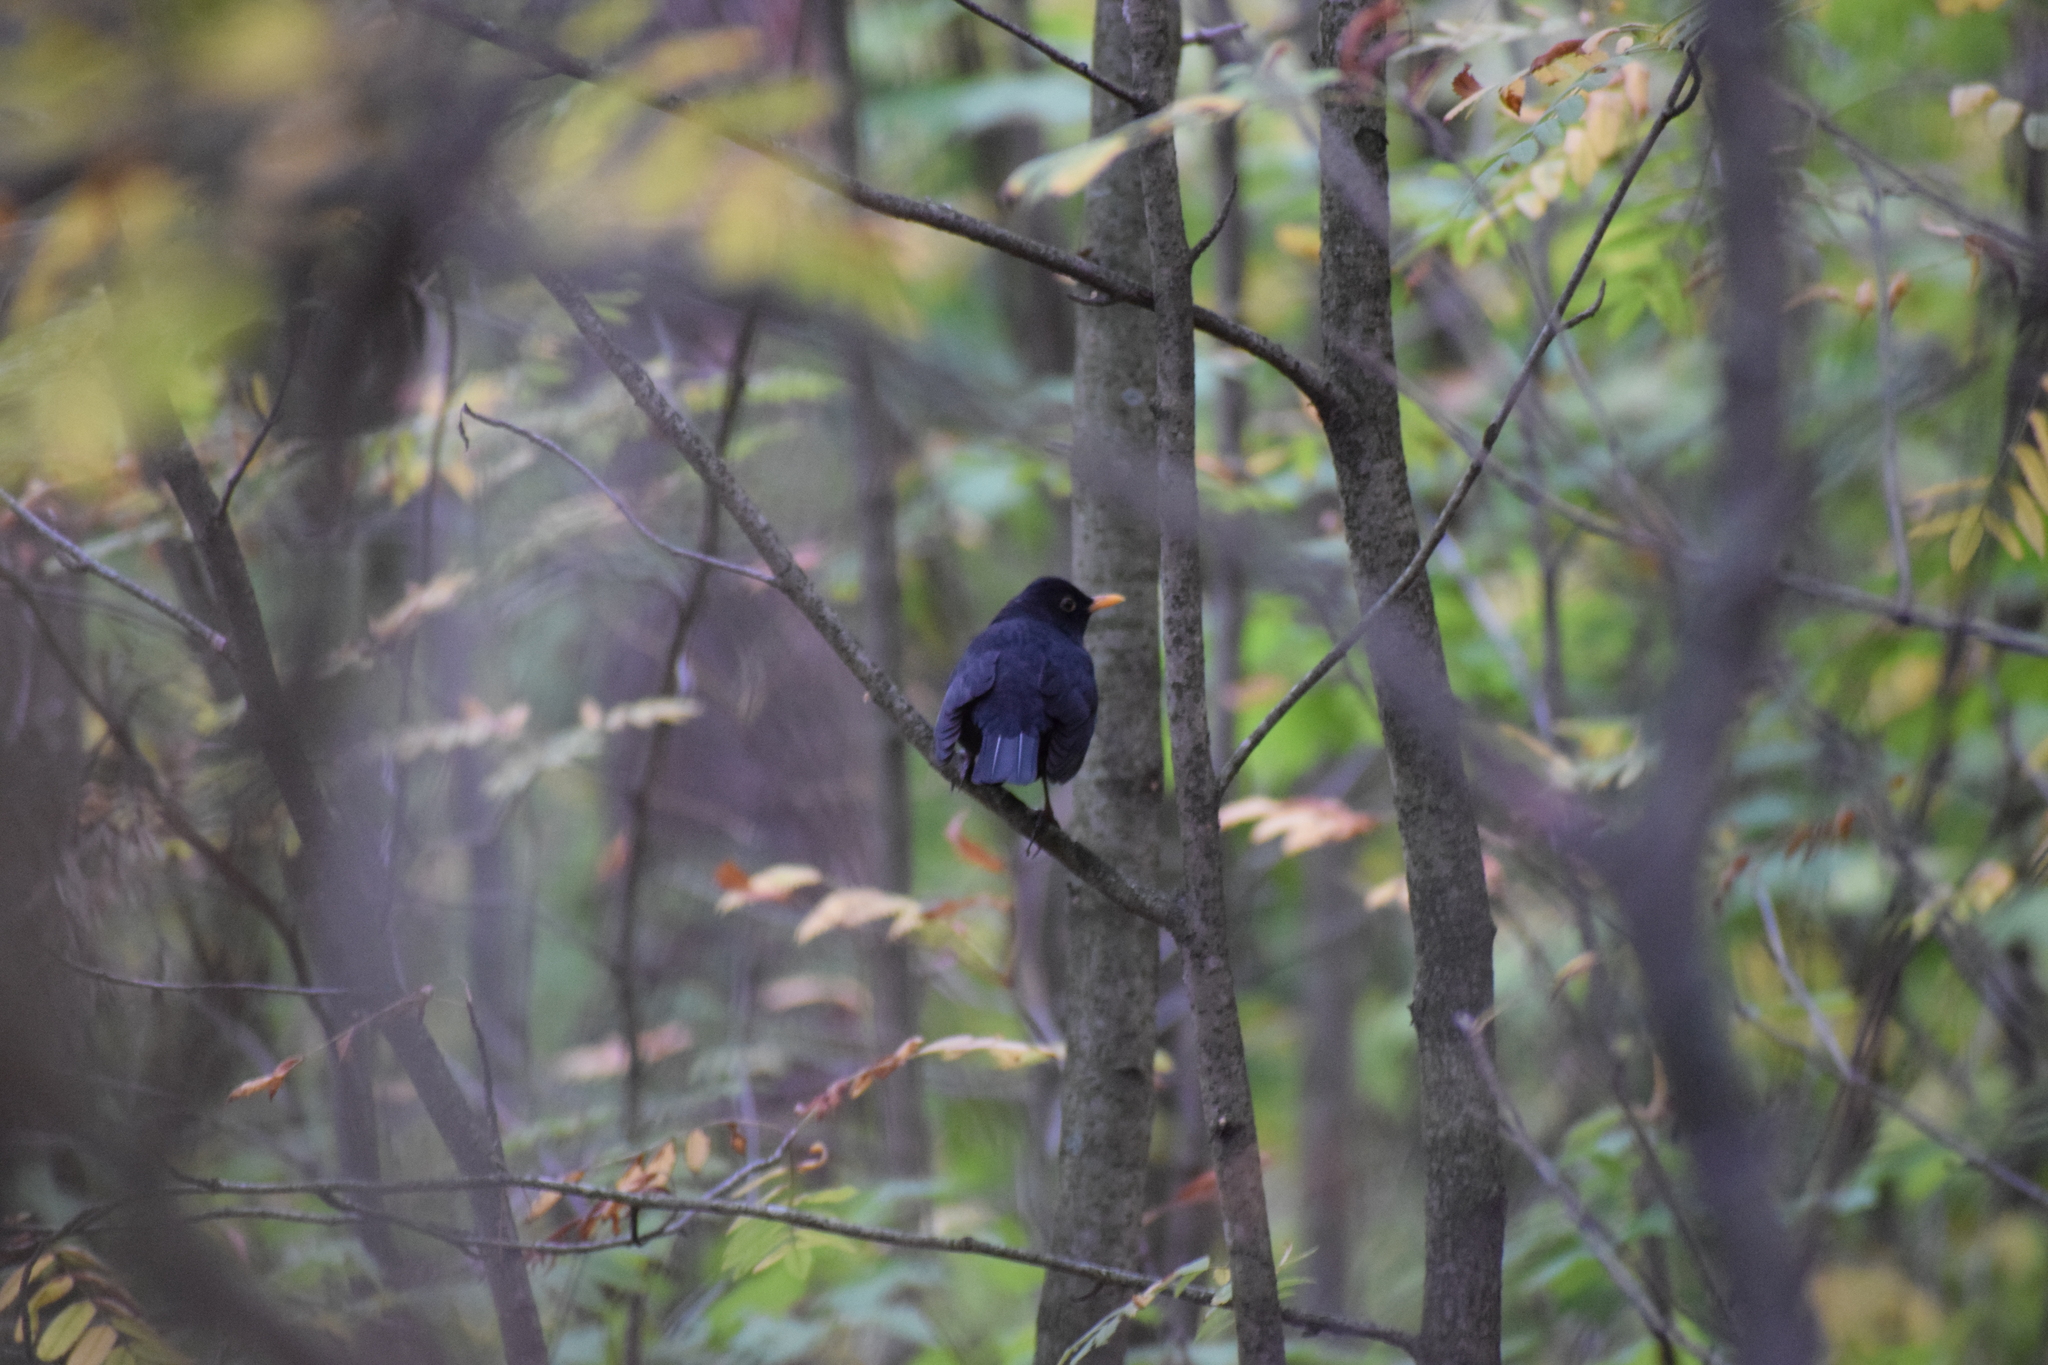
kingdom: Animalia
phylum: Chordata
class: Aves
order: Passeriformes
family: Turdidae
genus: Turdus
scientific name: Turdus merula
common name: Common blackbird
